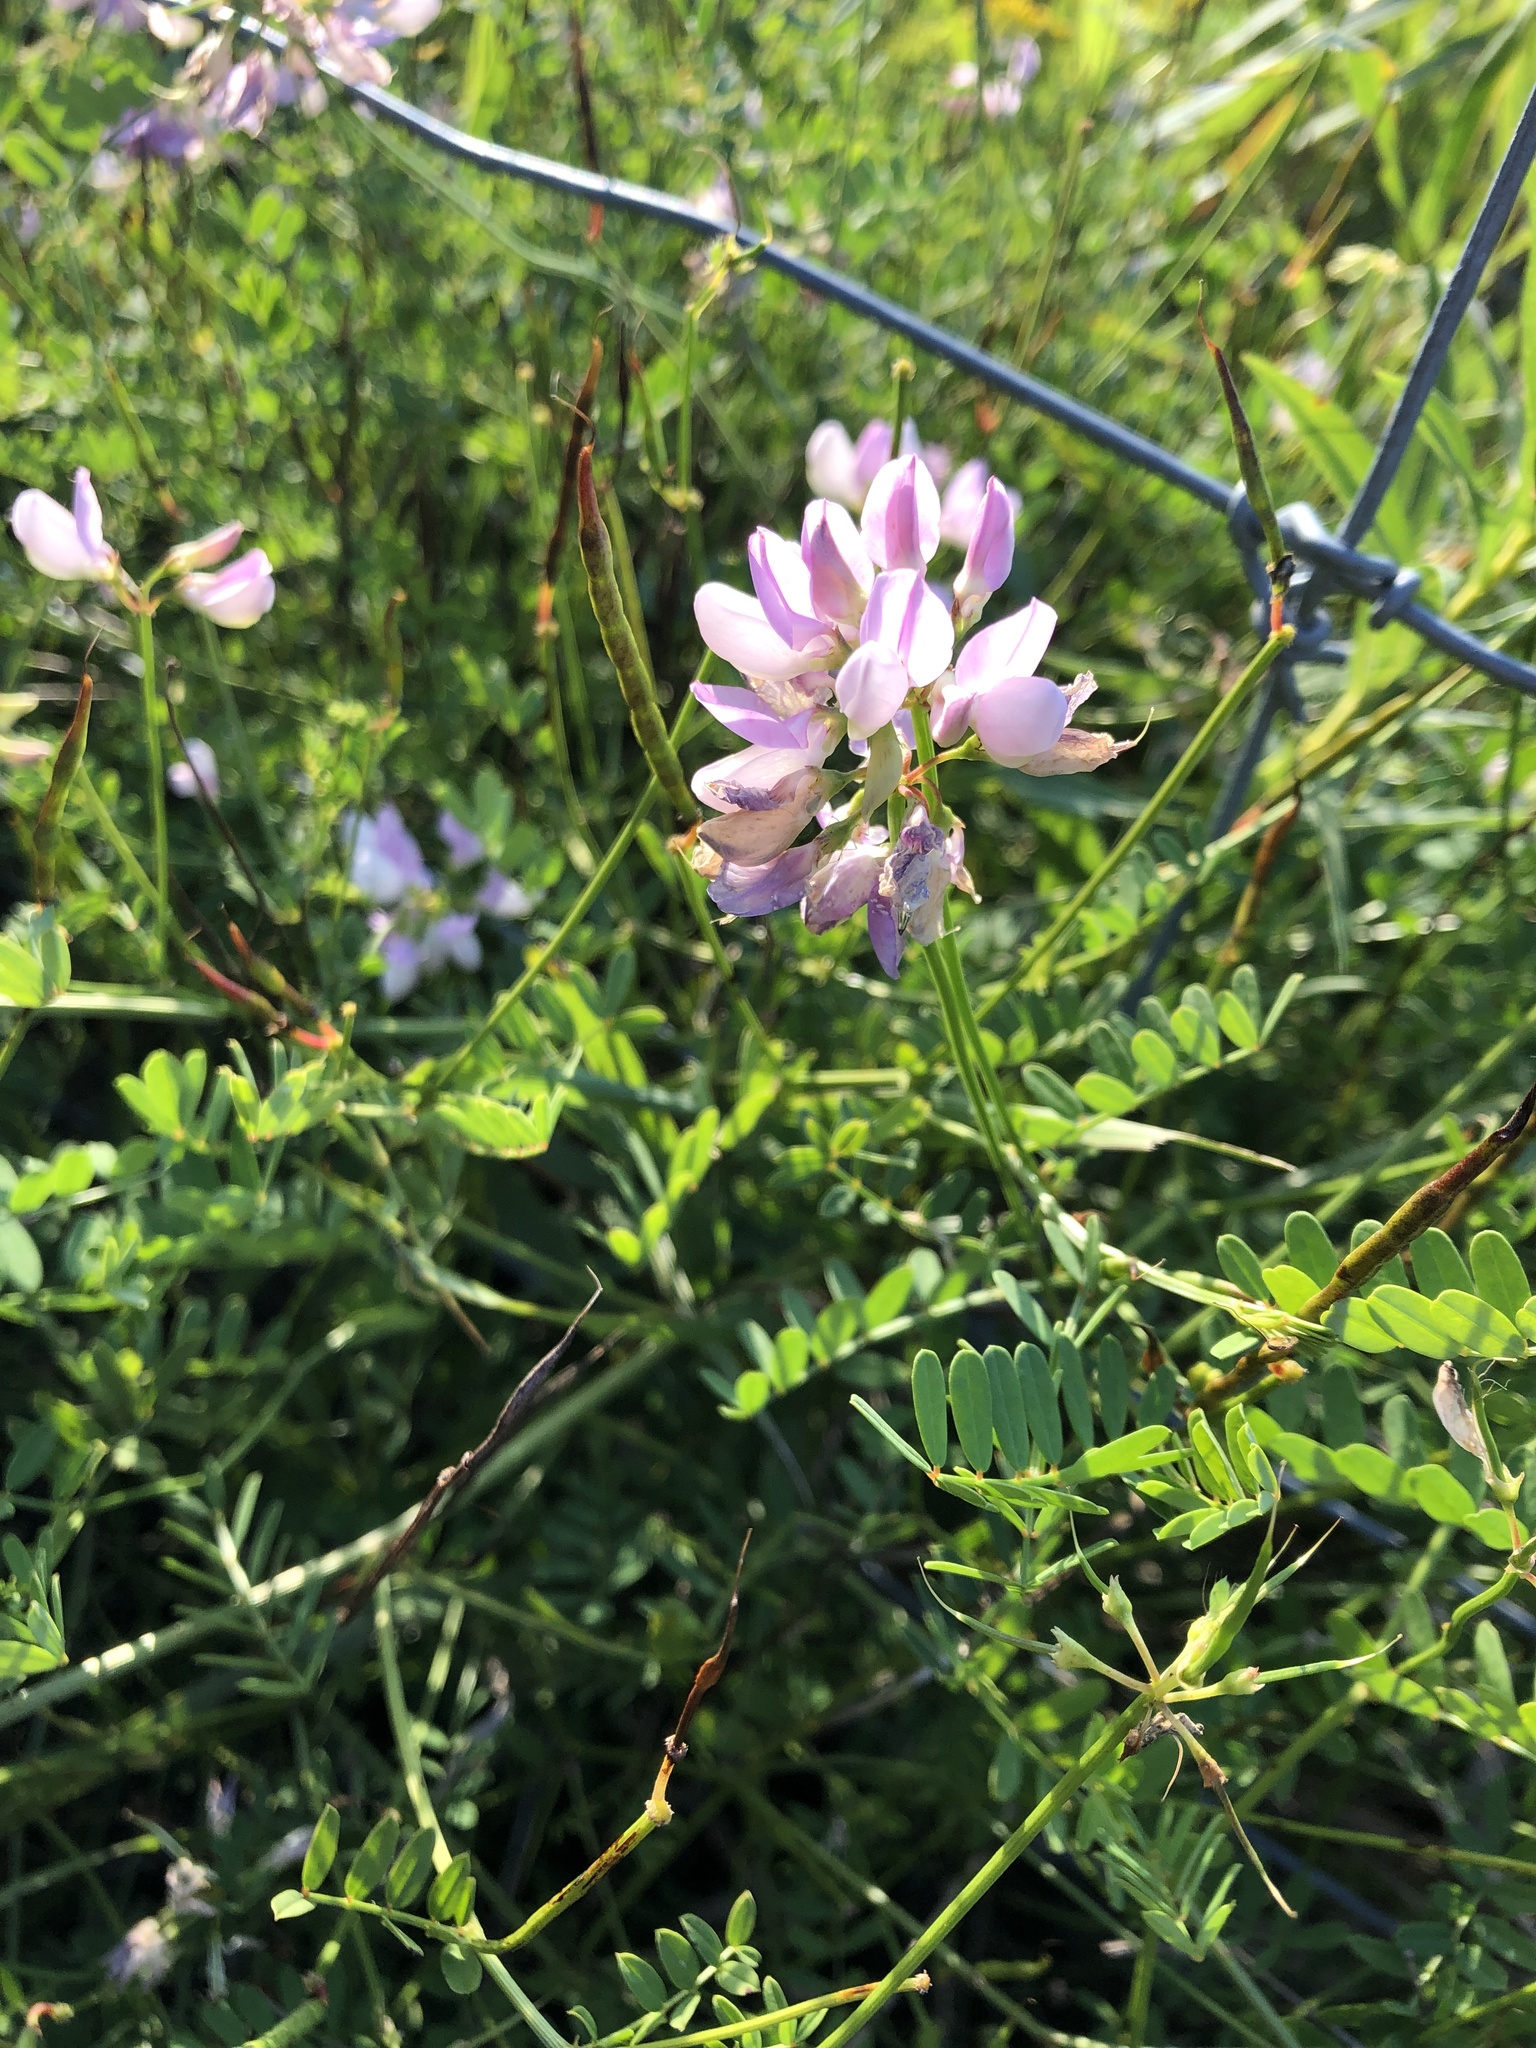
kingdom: Plantae
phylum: Tracheophyta
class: Magnoliopsida
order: Fabales
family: Fabaceae
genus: Coronilla
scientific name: Coronilla varia
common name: Crownvetch
